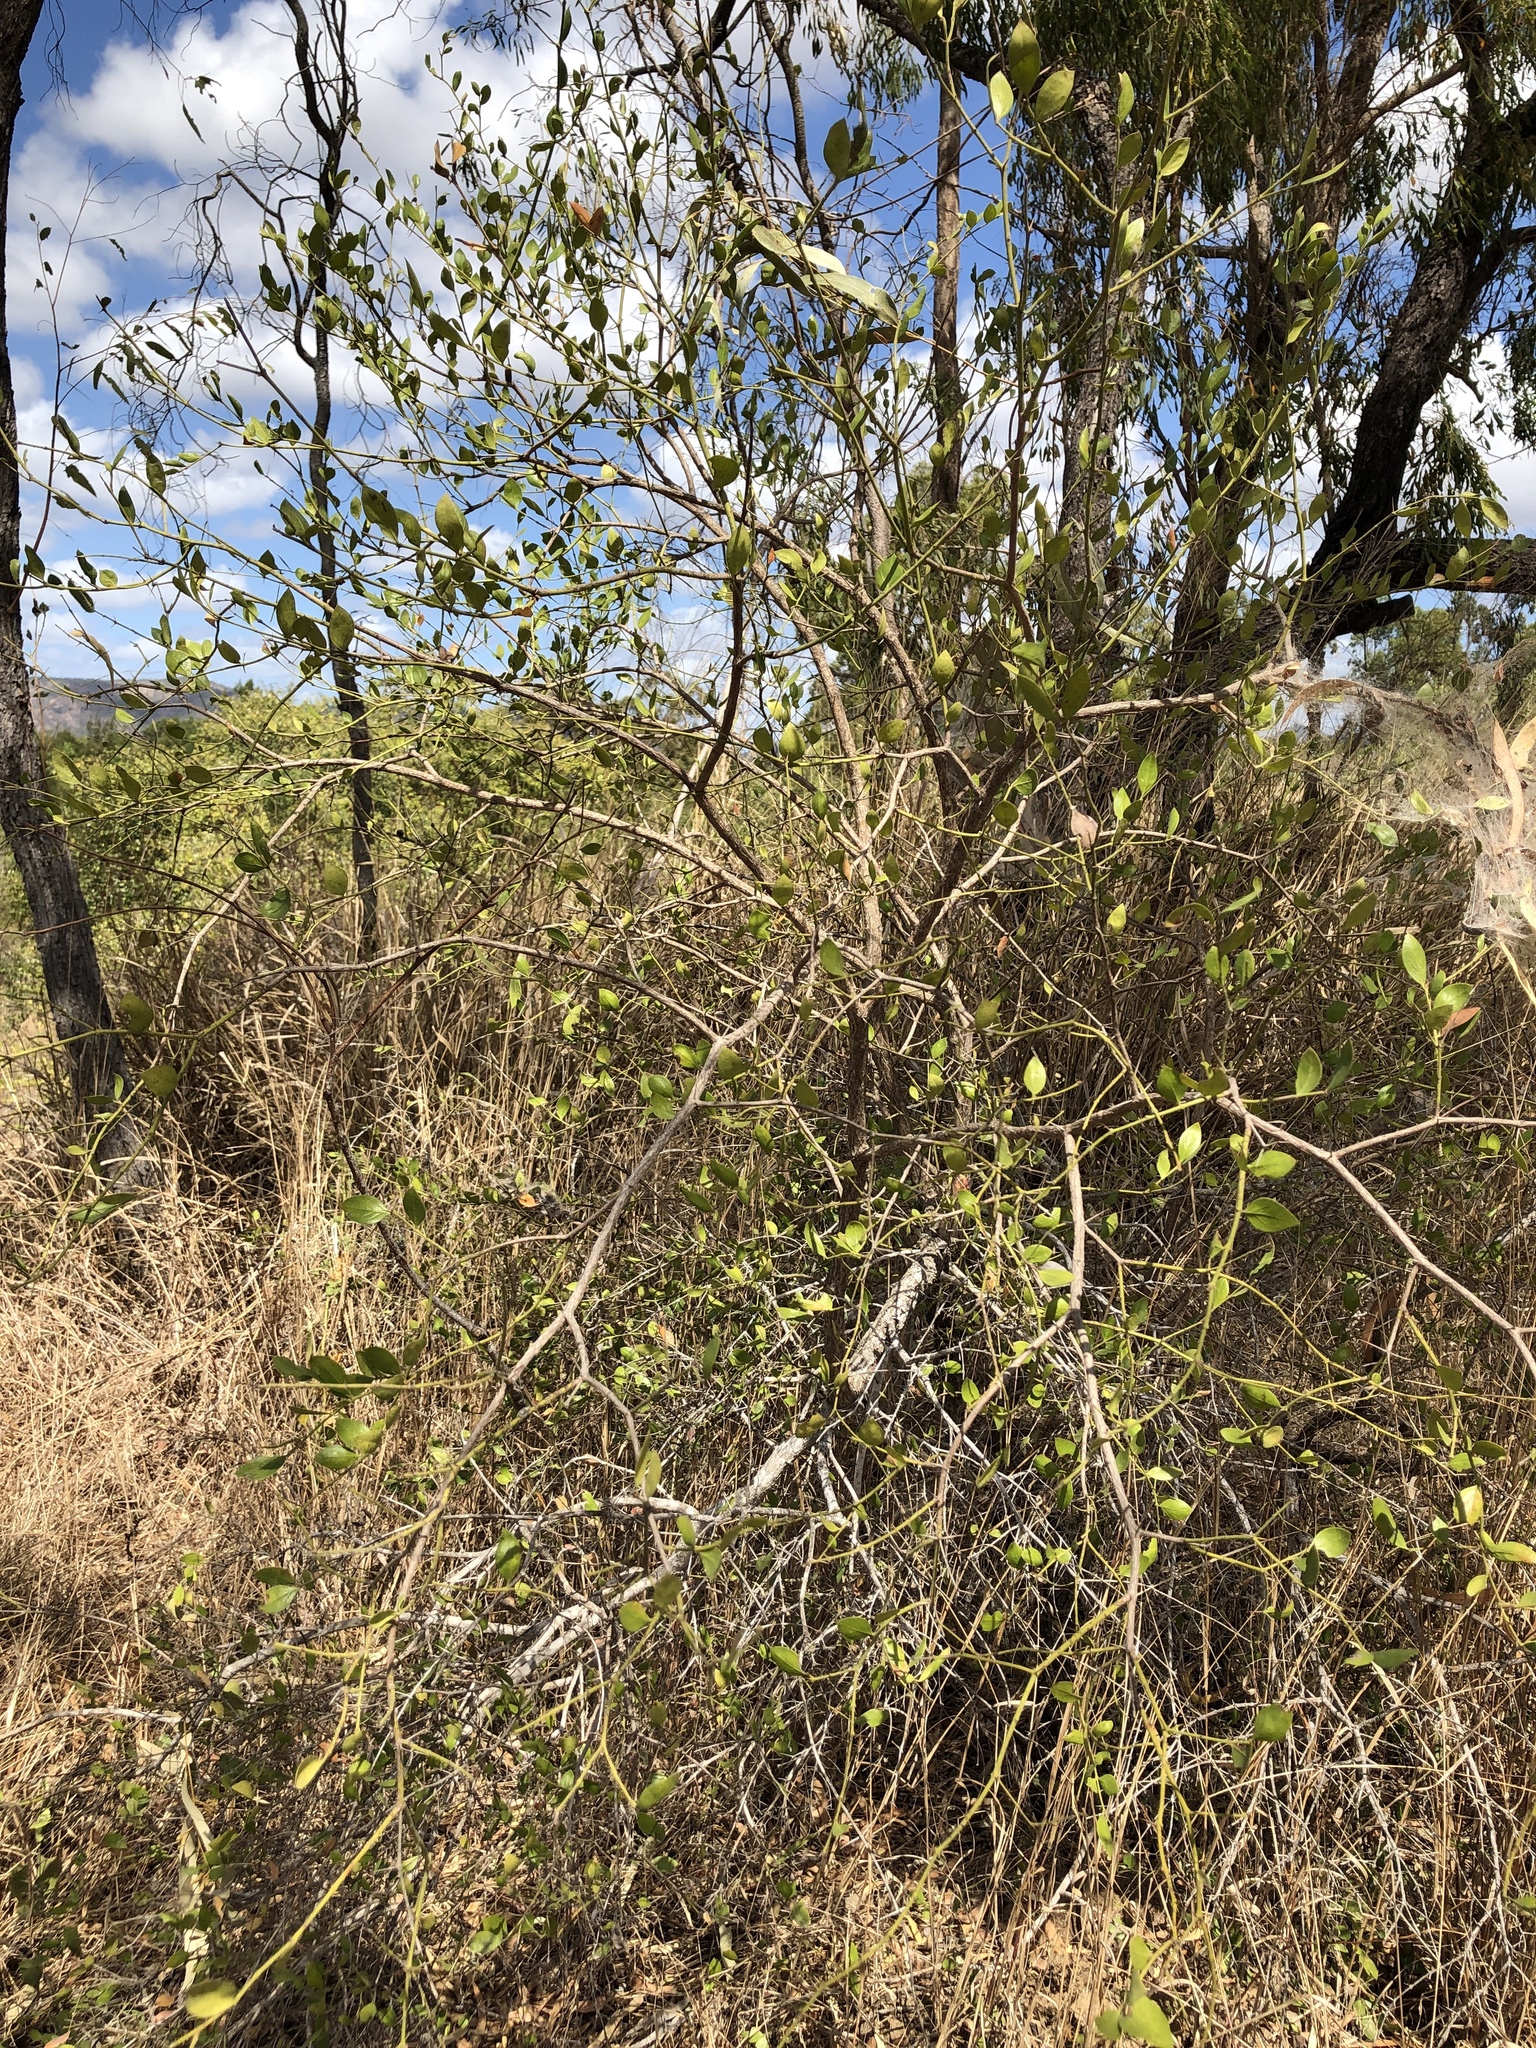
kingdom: Plantae
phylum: Tracheophyta
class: Magnoliopsida
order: Gentianales
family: Apocynaceae
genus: Carissa
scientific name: Carissa ovata
